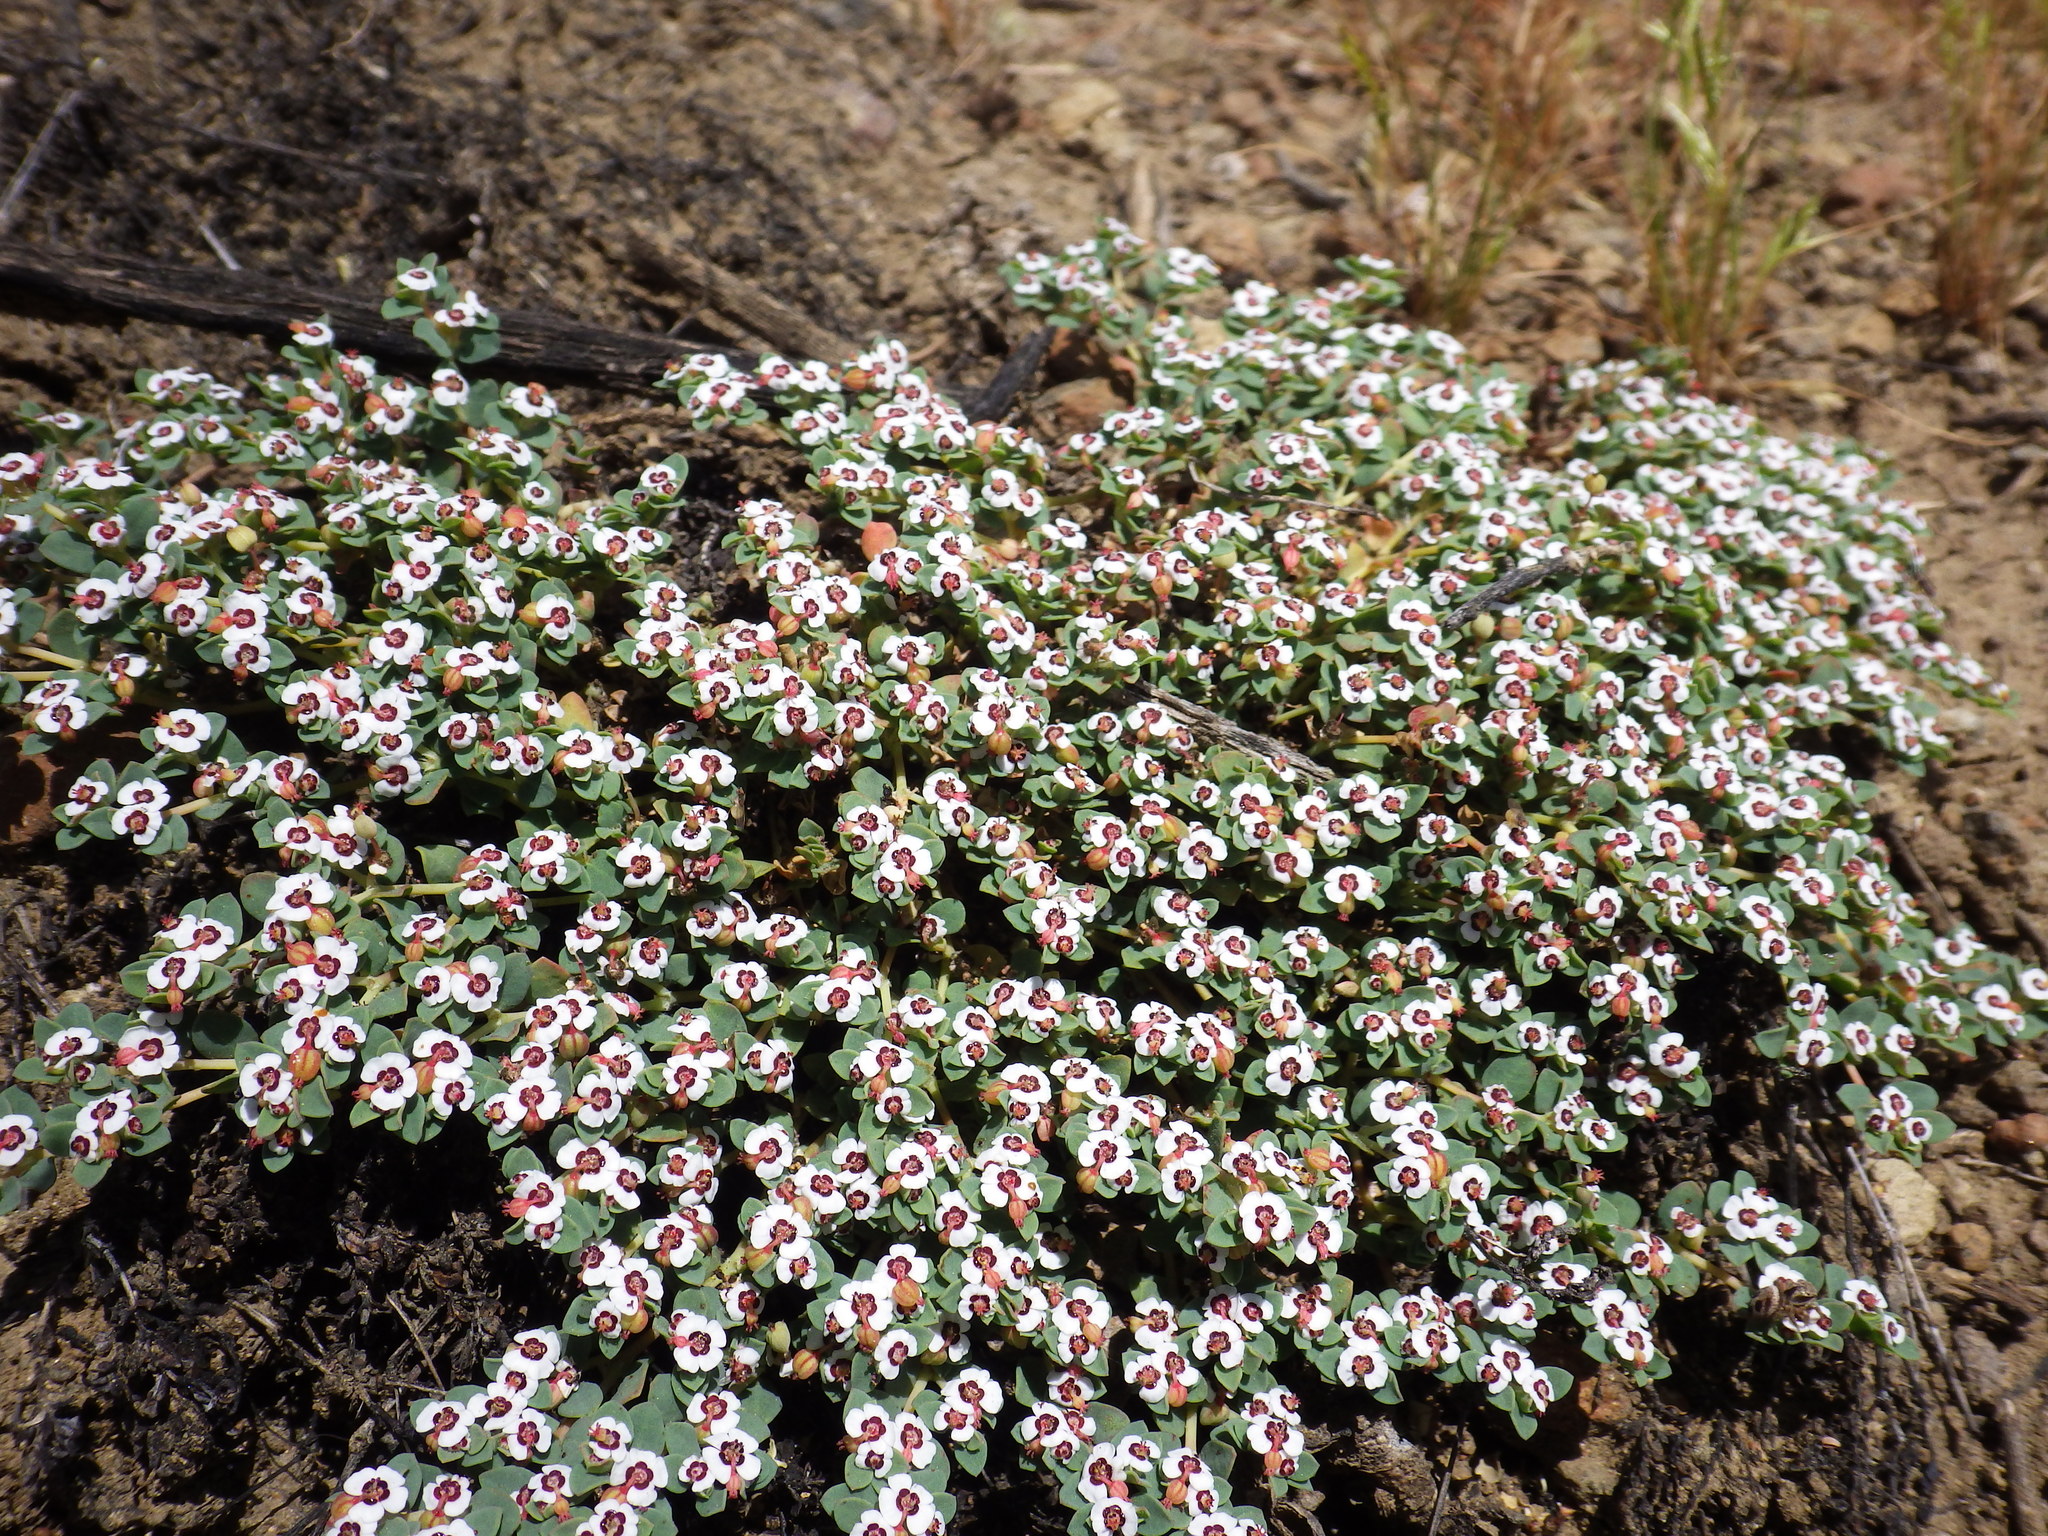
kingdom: Plantae
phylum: Tracheophyta
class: Magnoliopsida
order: Malpighiales
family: Euphorbiaceae
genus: Euphorbia
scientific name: Euphorbia polycarpa
